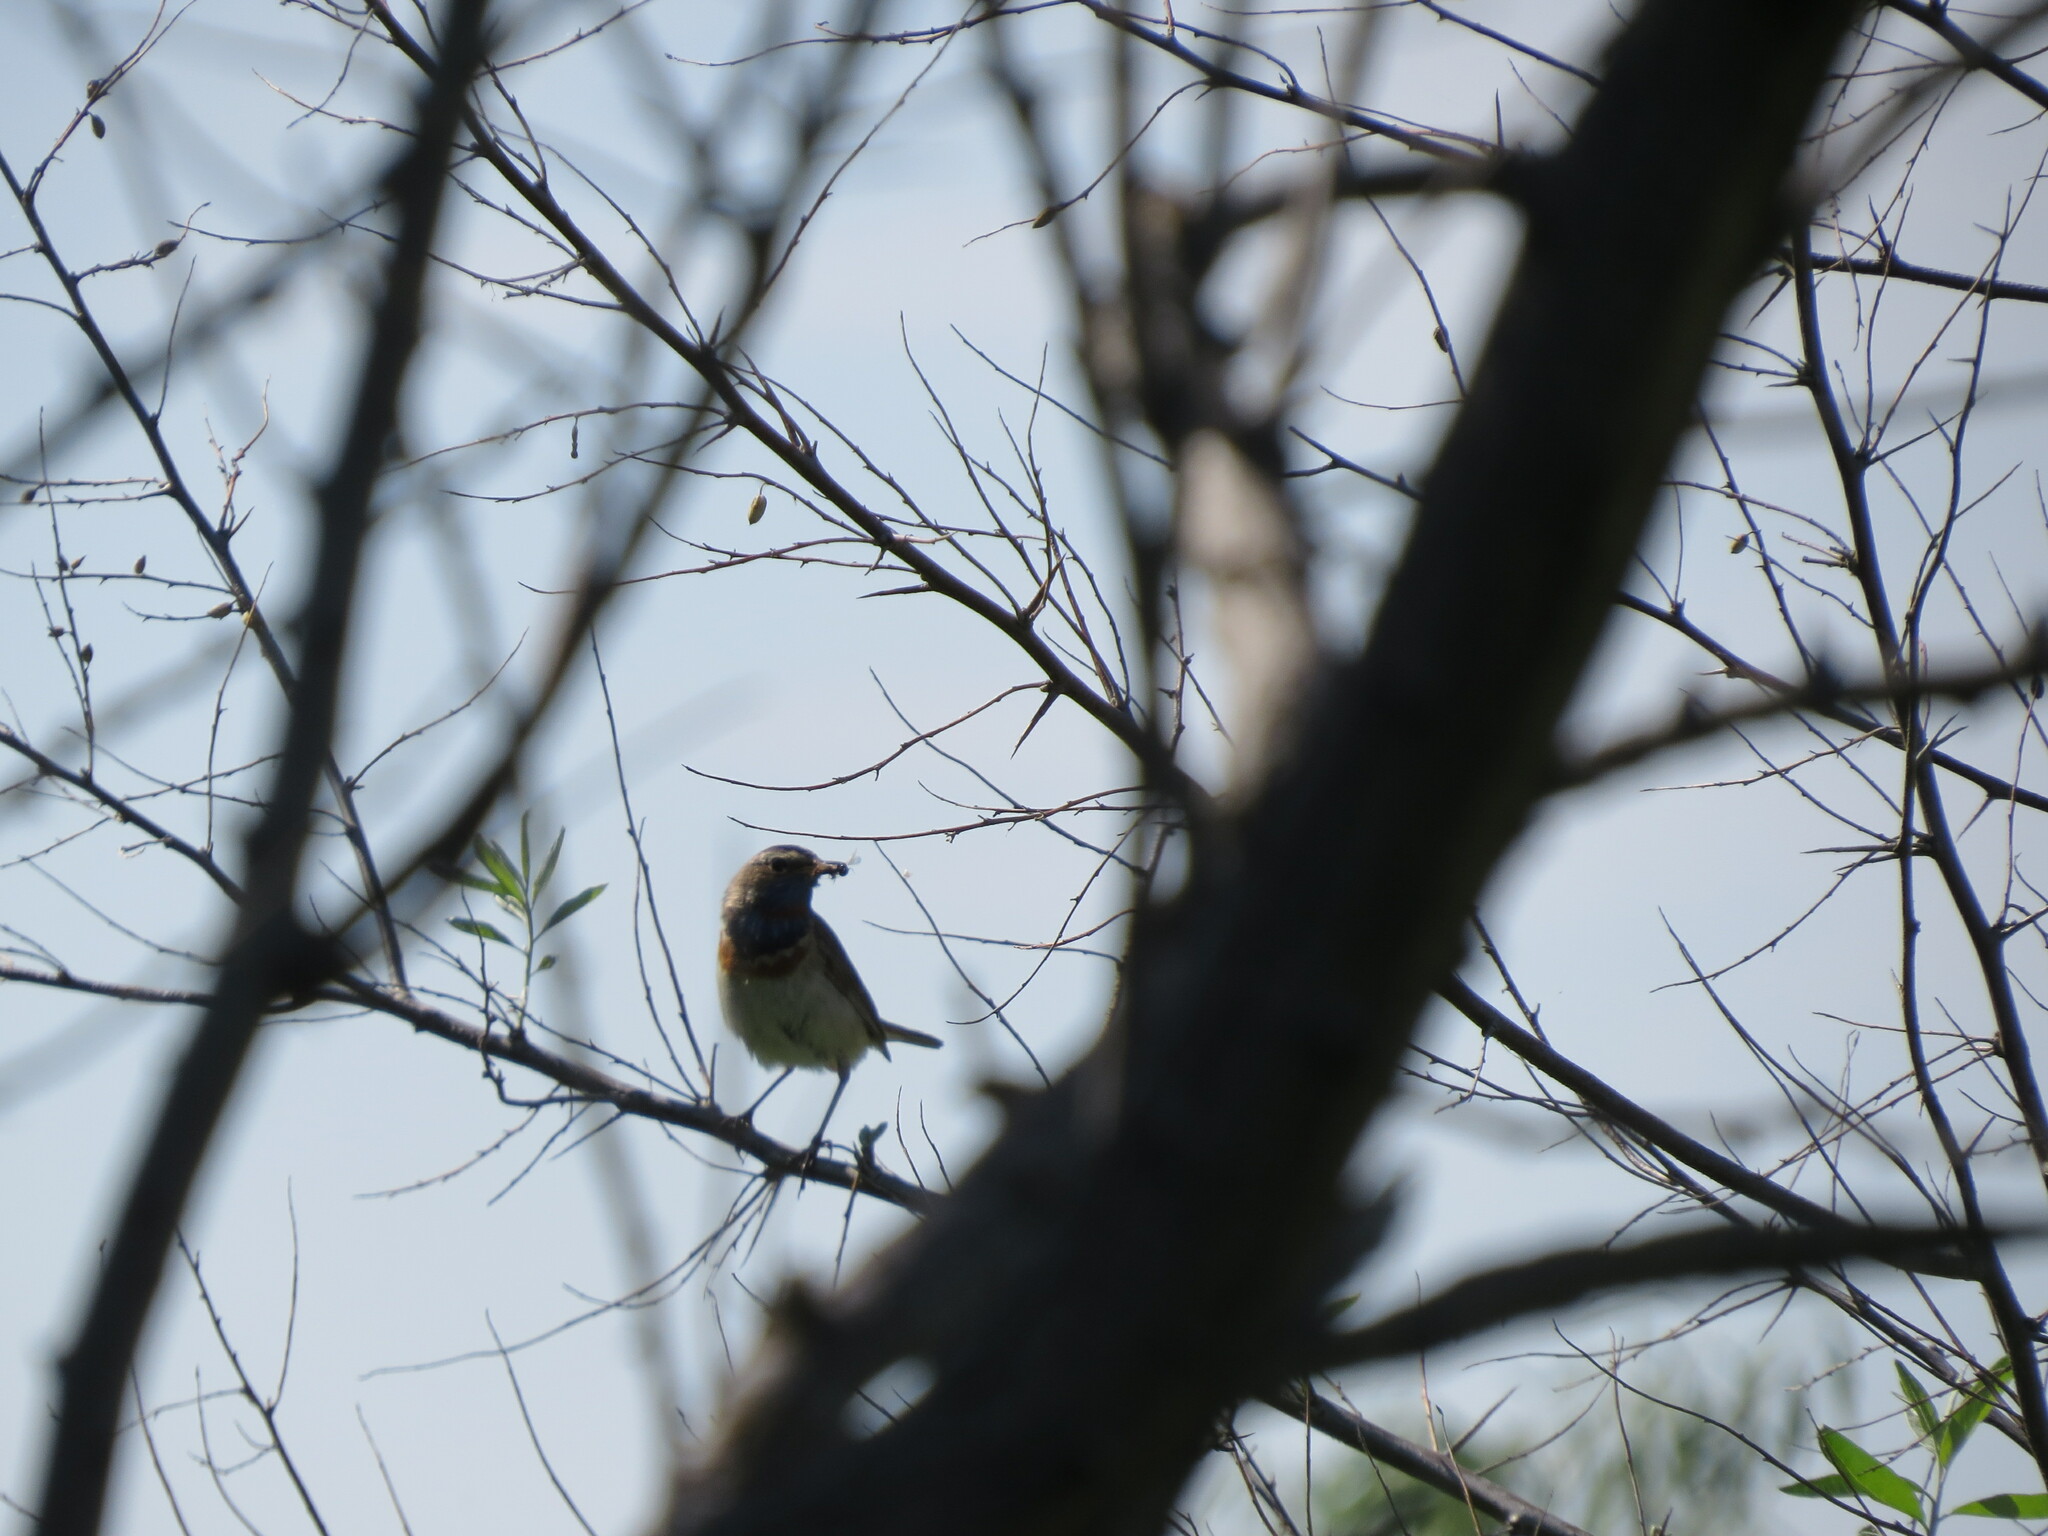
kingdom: Animalia
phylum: Chordata
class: Aves
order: Passeriformes
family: Muscicapidae
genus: Luscinia
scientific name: Luscinia svecica
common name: Bluethroat
